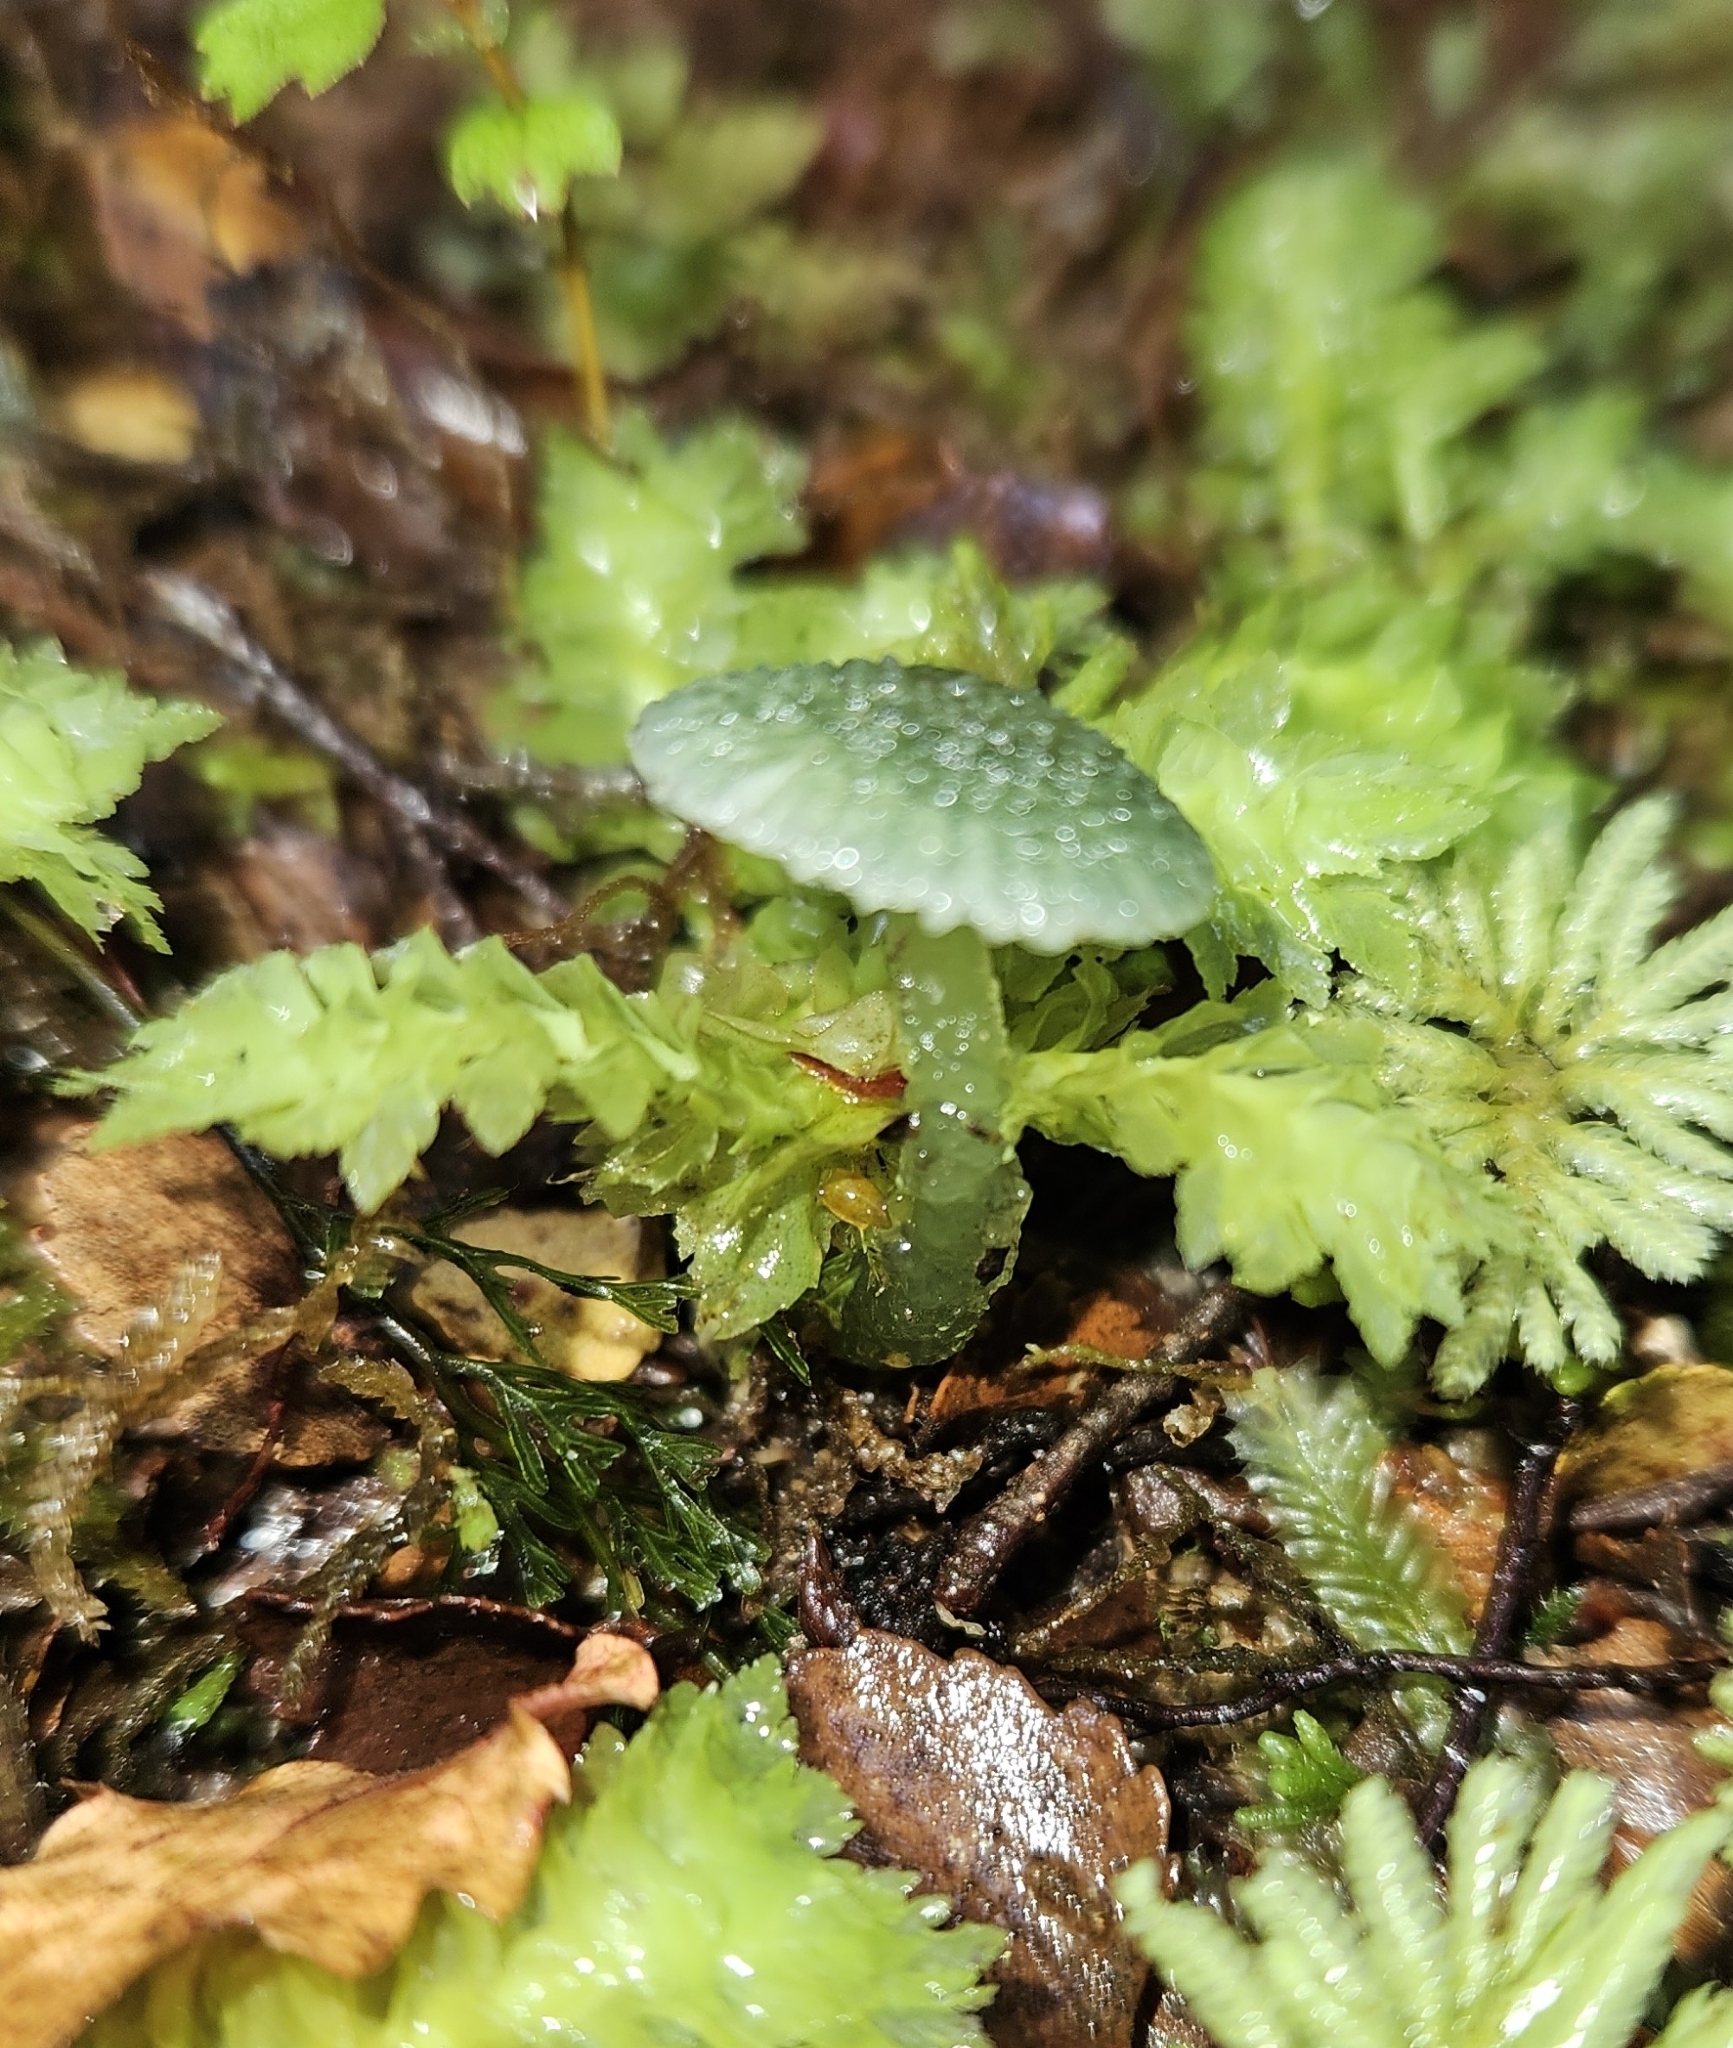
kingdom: Fungi
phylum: Basidiomycota
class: Agaricomycetes
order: Agaricales
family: Hygrophoraceae
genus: Gliophorus
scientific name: Gliophorus graminicolor
